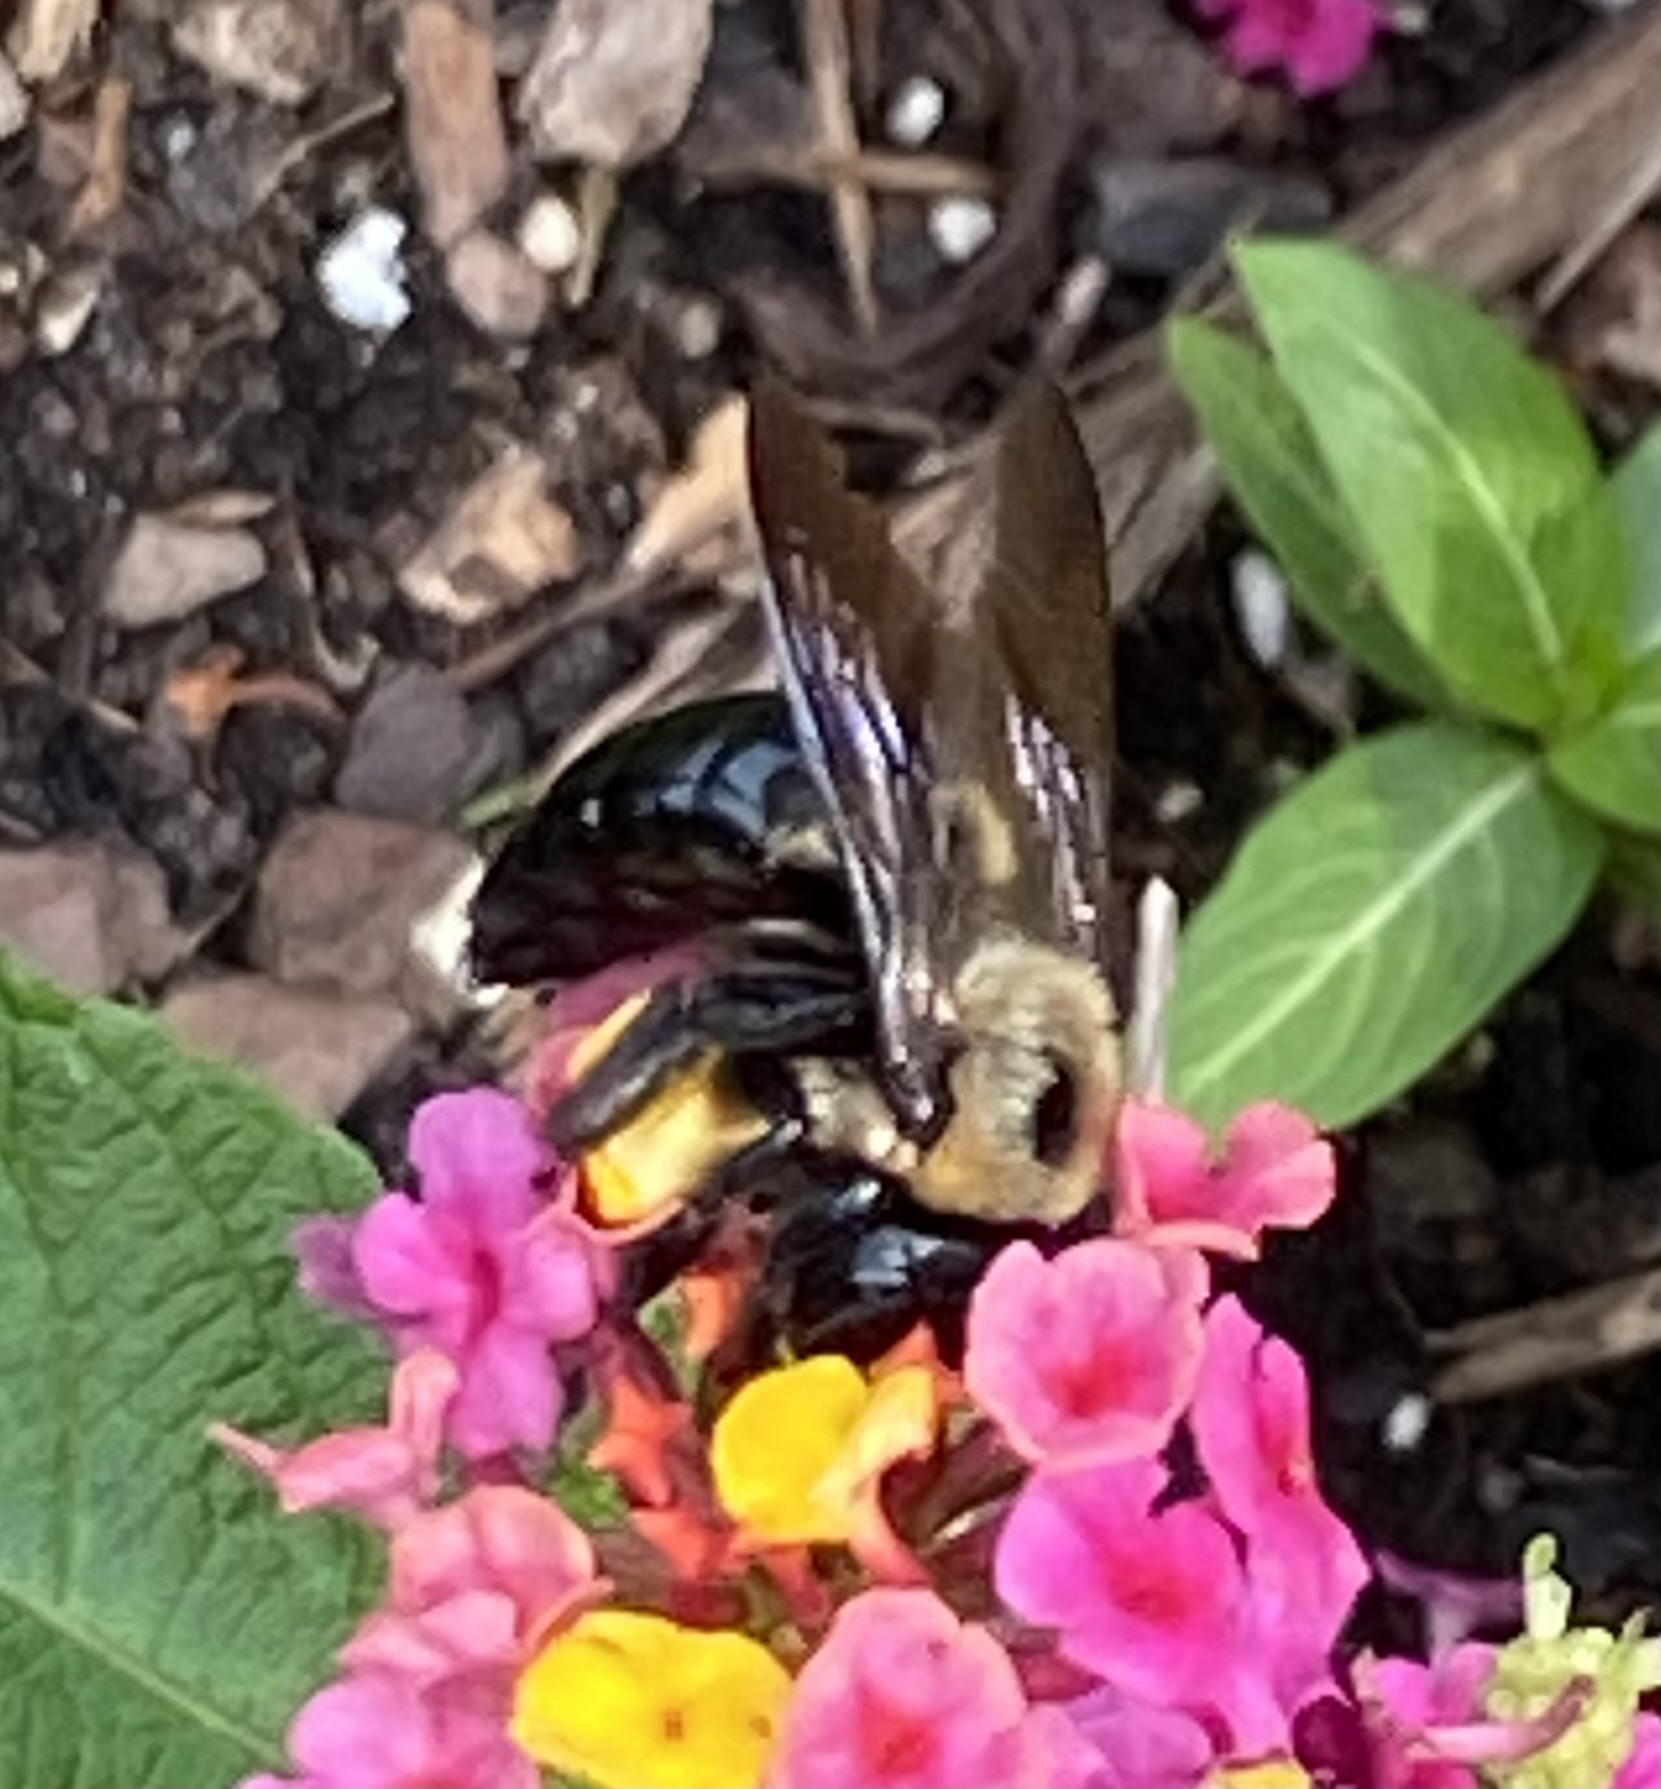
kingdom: Animalia
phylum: Arthropoda
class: Insecta
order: Hymenoptera
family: Apidae
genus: Xylocopa
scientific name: Xylocopa virginica
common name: Carpenter bee
